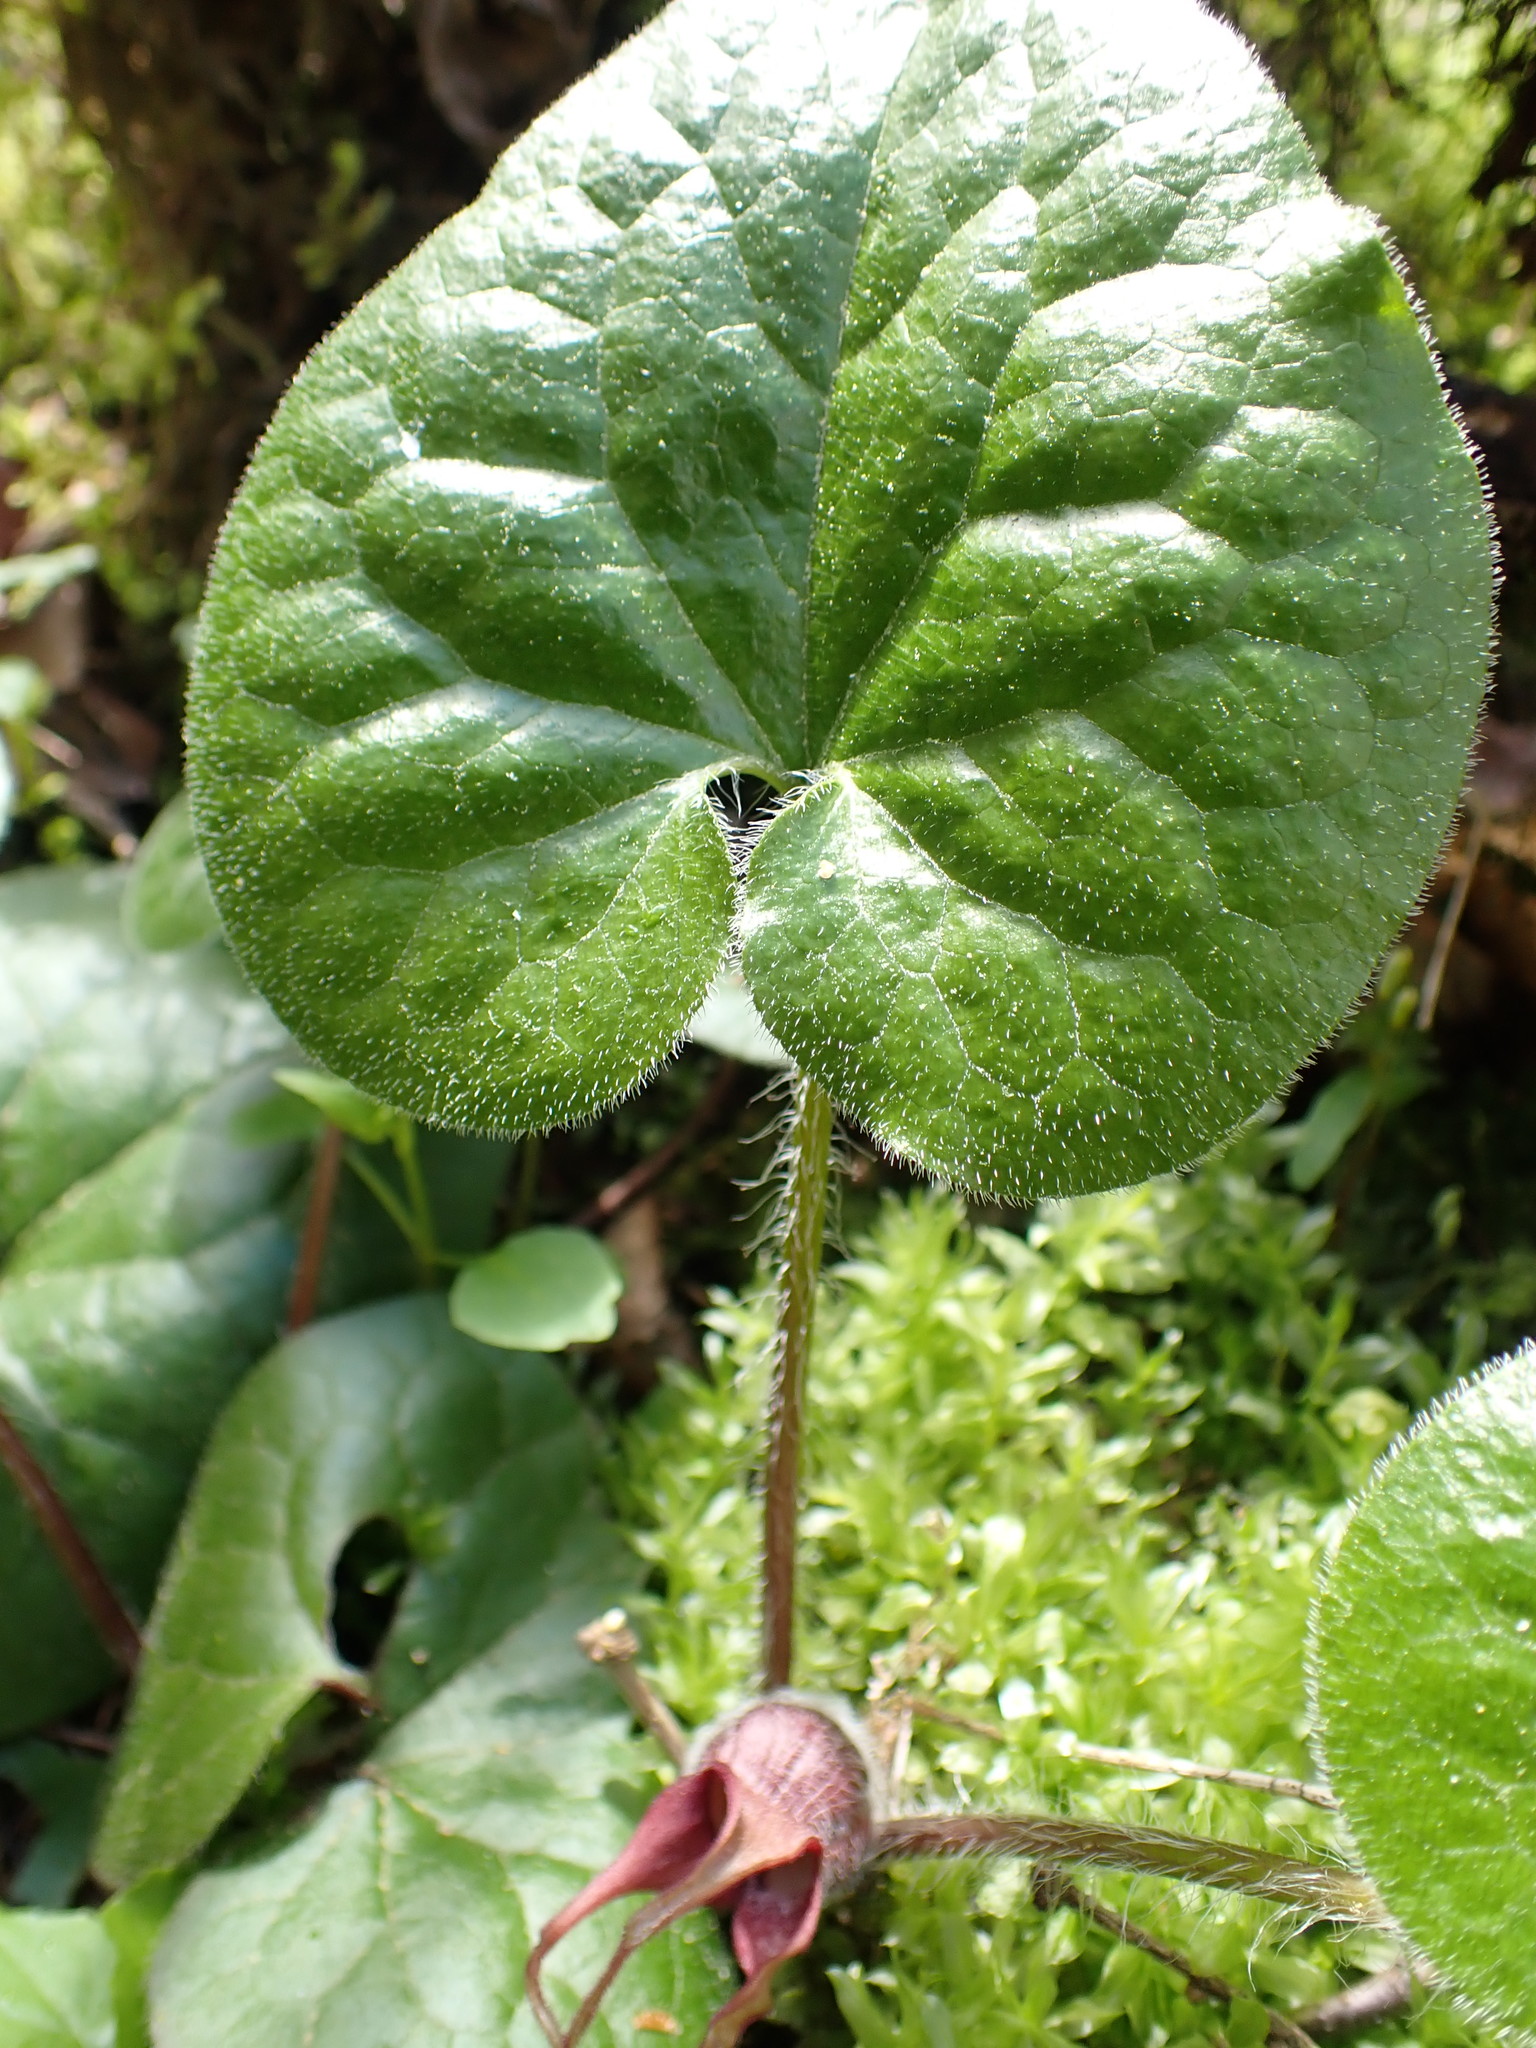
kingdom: Plantae
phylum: Tracheophyta
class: Magnoliopsida
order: Piperales
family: Aristolochiaceae
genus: Asarum
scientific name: Asarum caudatum
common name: Wild ginger
